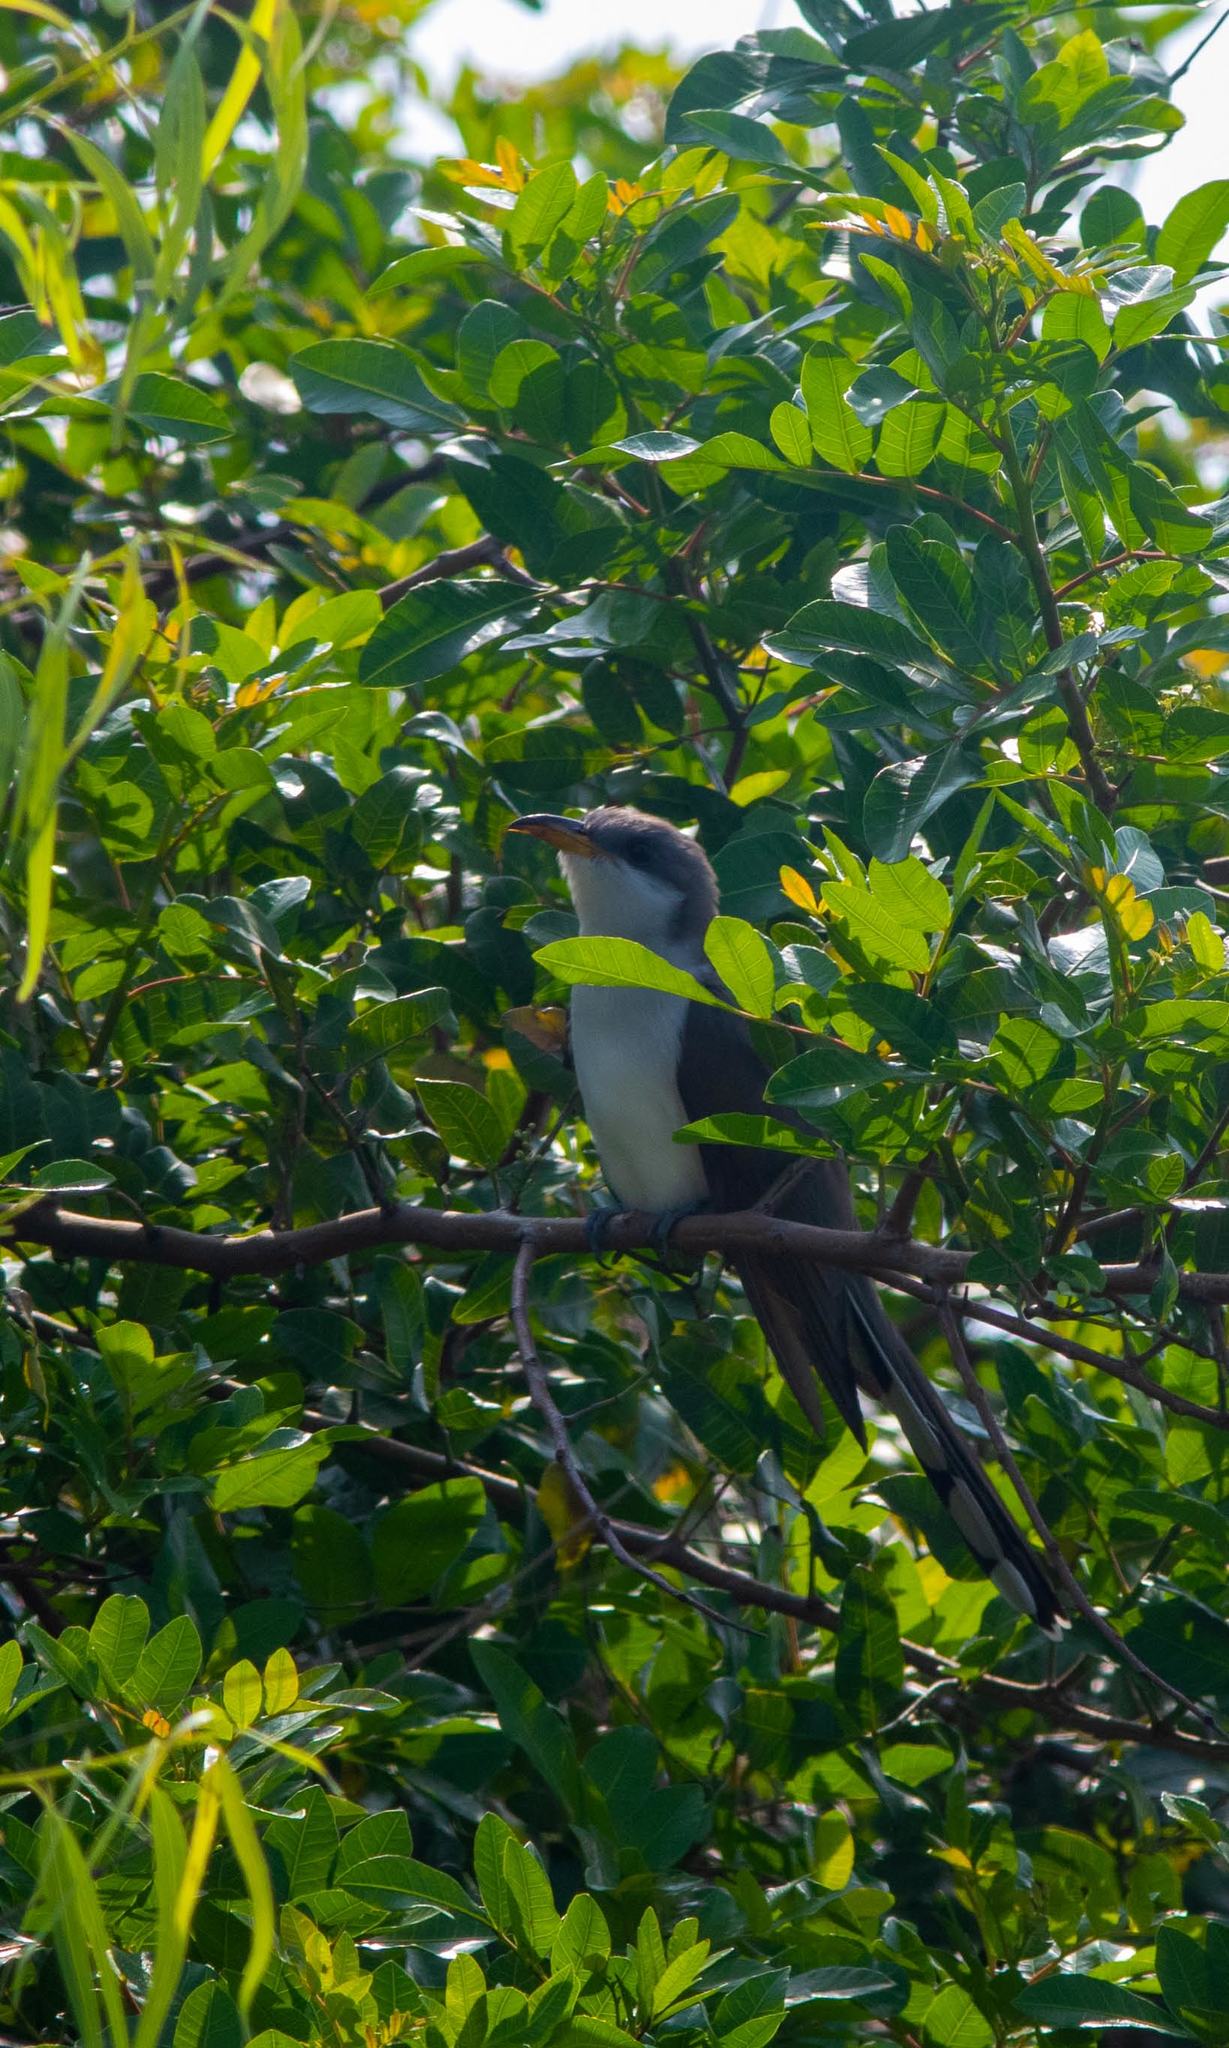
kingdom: Animalia
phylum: Chordata
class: Aves
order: Cuculiformes
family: Cuculidae
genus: Coccyzus
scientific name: Coccyzus americanus
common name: Yellow-billed cuckoo
